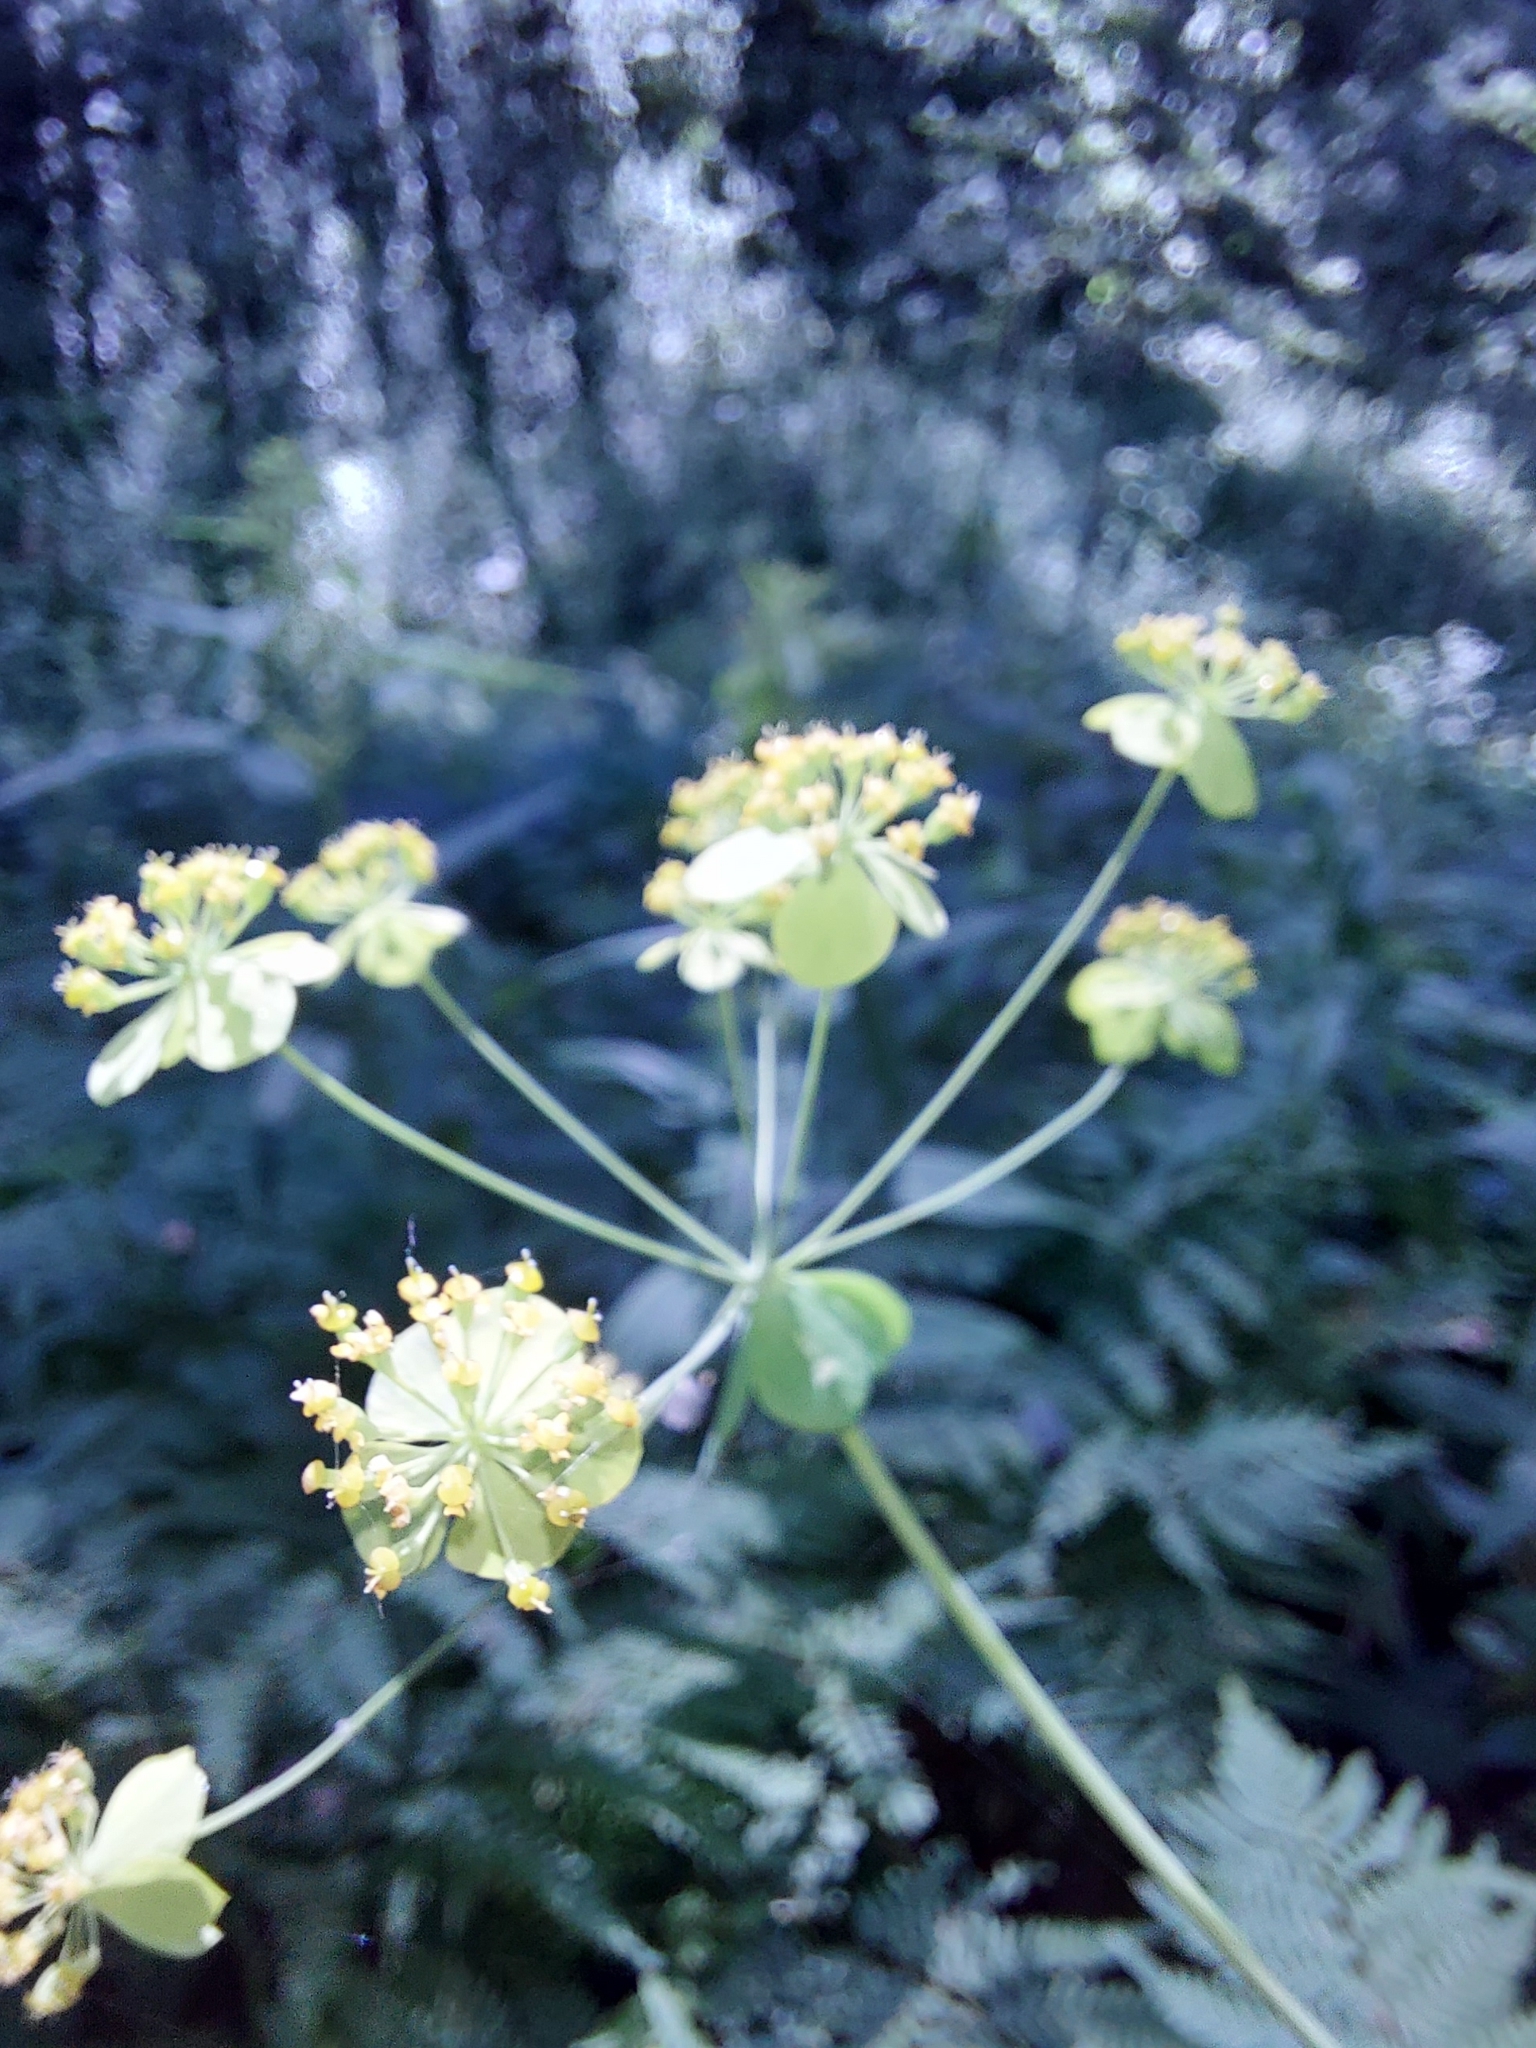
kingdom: Plantae
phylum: Tracheophyta
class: Magnoliopsida
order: Apiales
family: Apiaceae
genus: Bupleurum
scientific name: Bupleurum aureum
